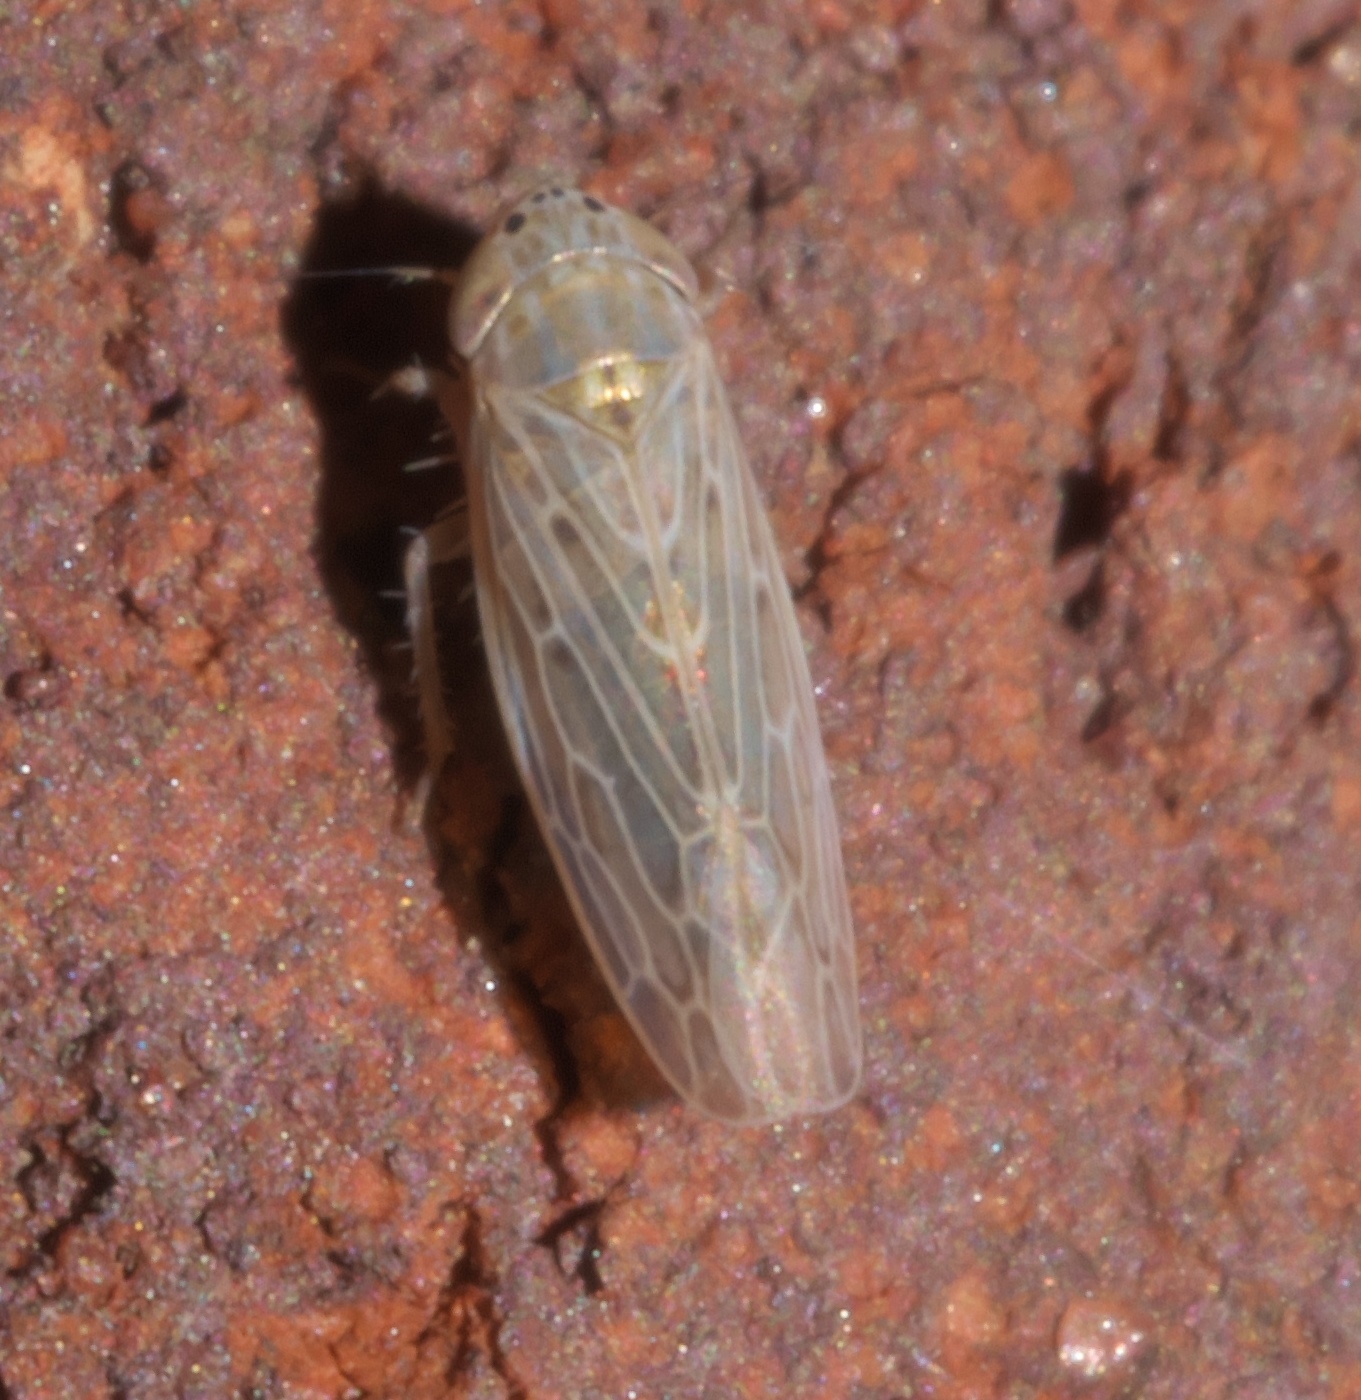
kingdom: Animalia
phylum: Arthropoda
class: Insecta
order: Hemiptera
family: Cicadellidae
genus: Graminella
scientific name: Graminella sonora
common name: Lesser lawn leafhopper
